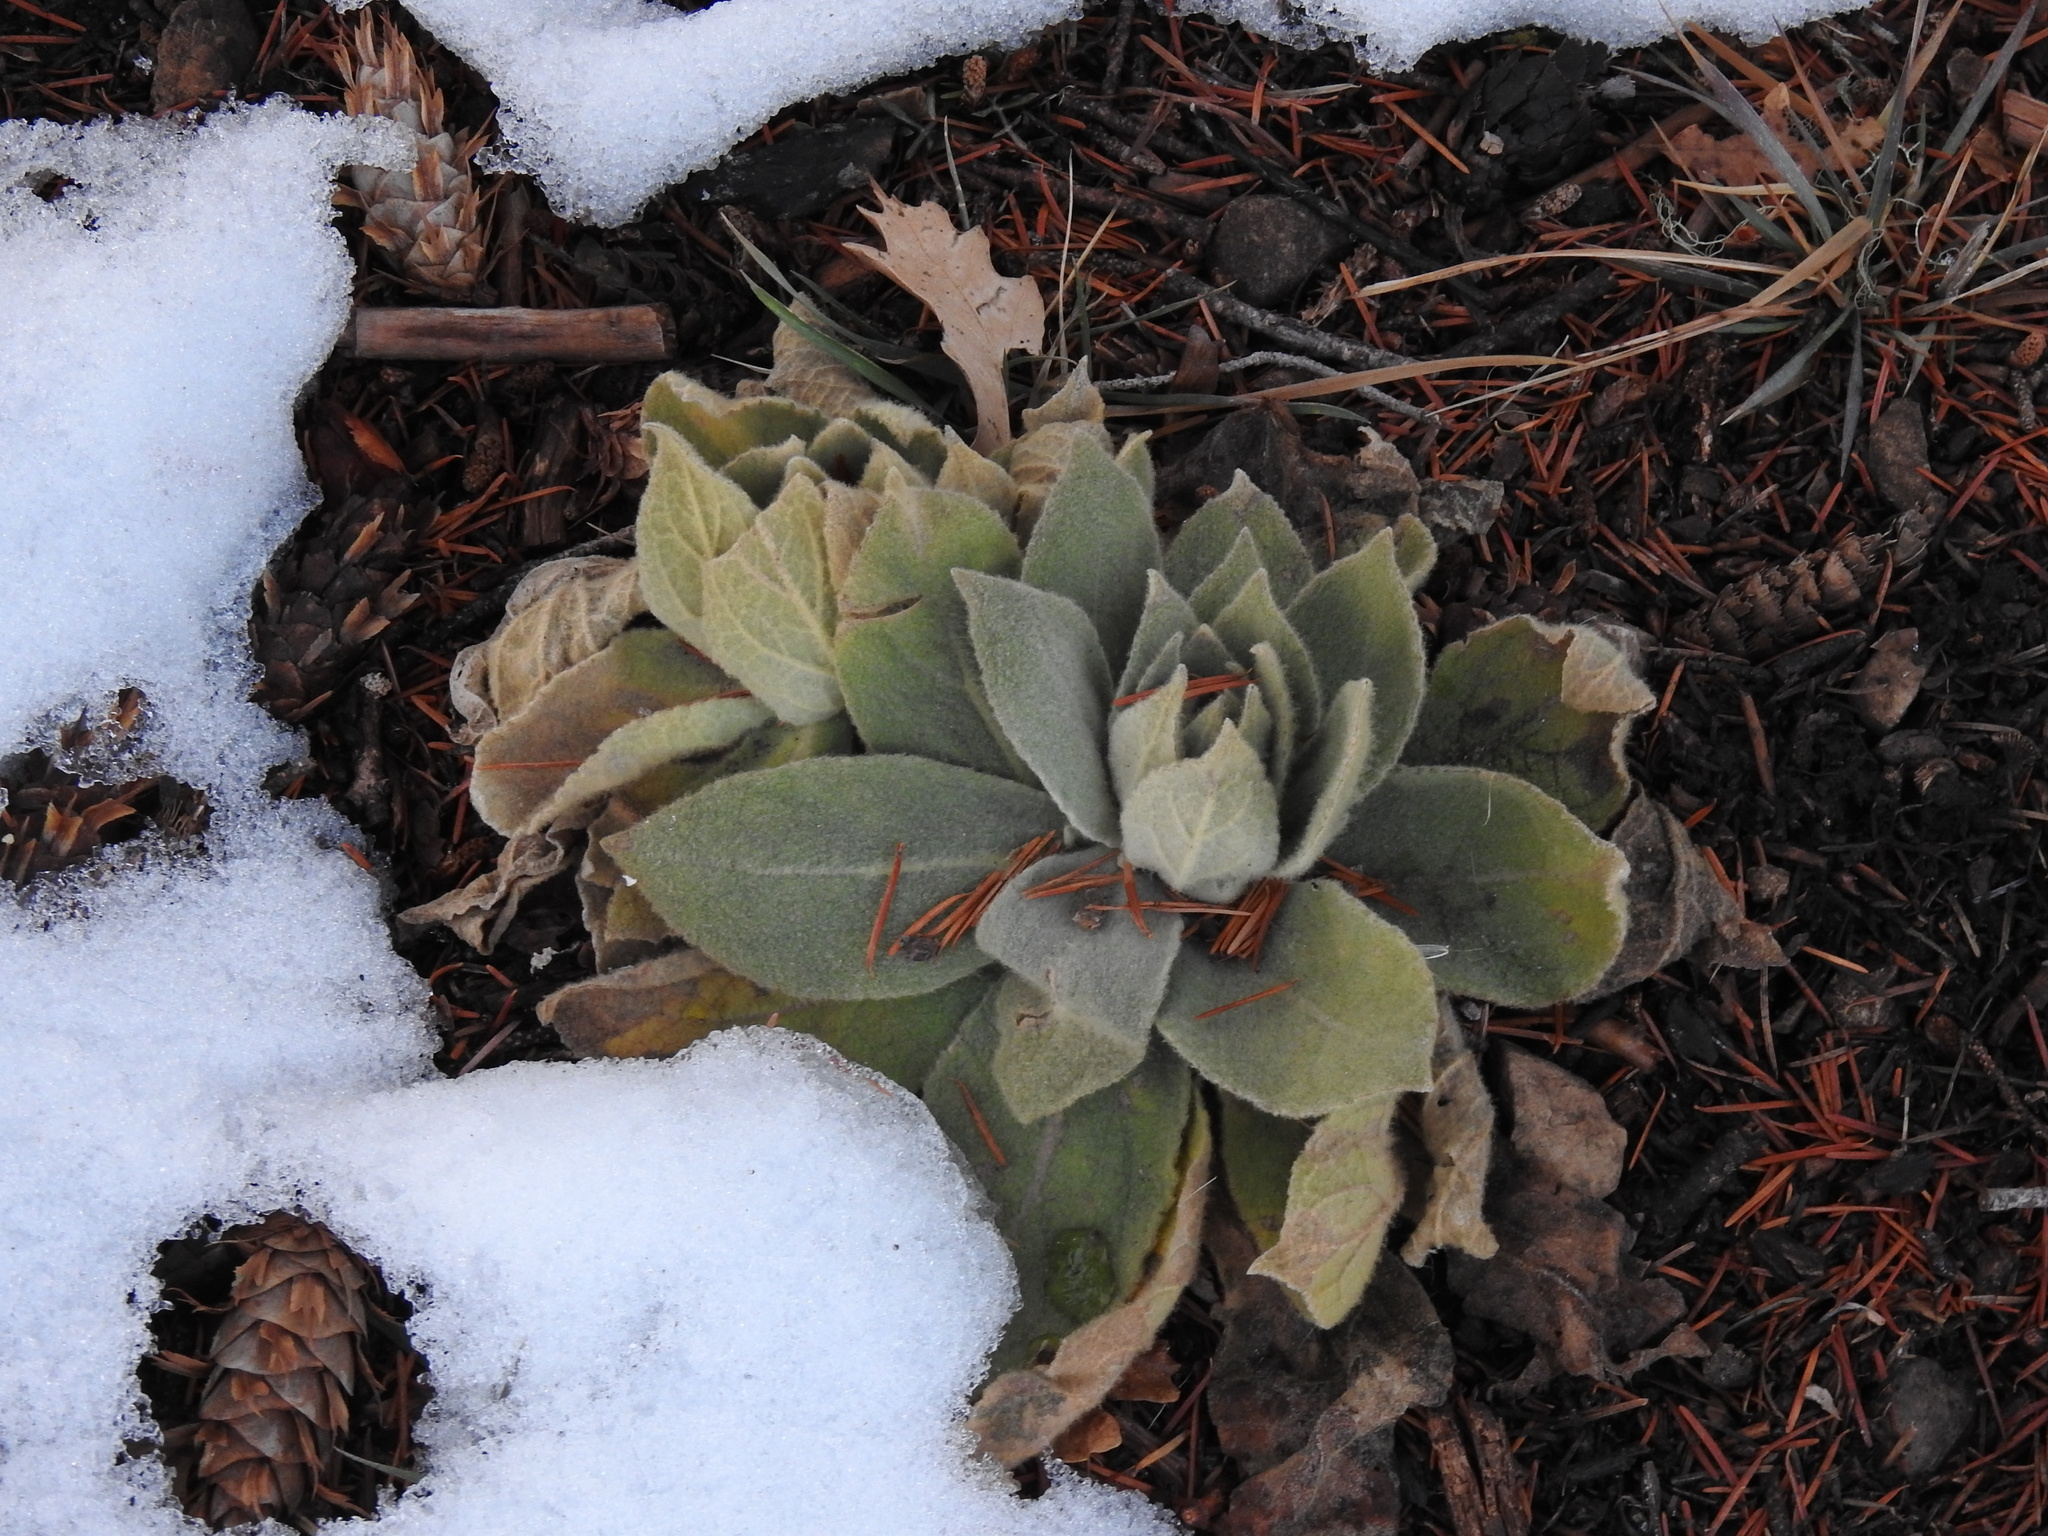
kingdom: Plantae
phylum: Tracheophyta
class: Magnoliopsida
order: Lamiales
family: Scrophulariaceae
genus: Verbascum
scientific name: Verbascum thapsus
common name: Common mullein
